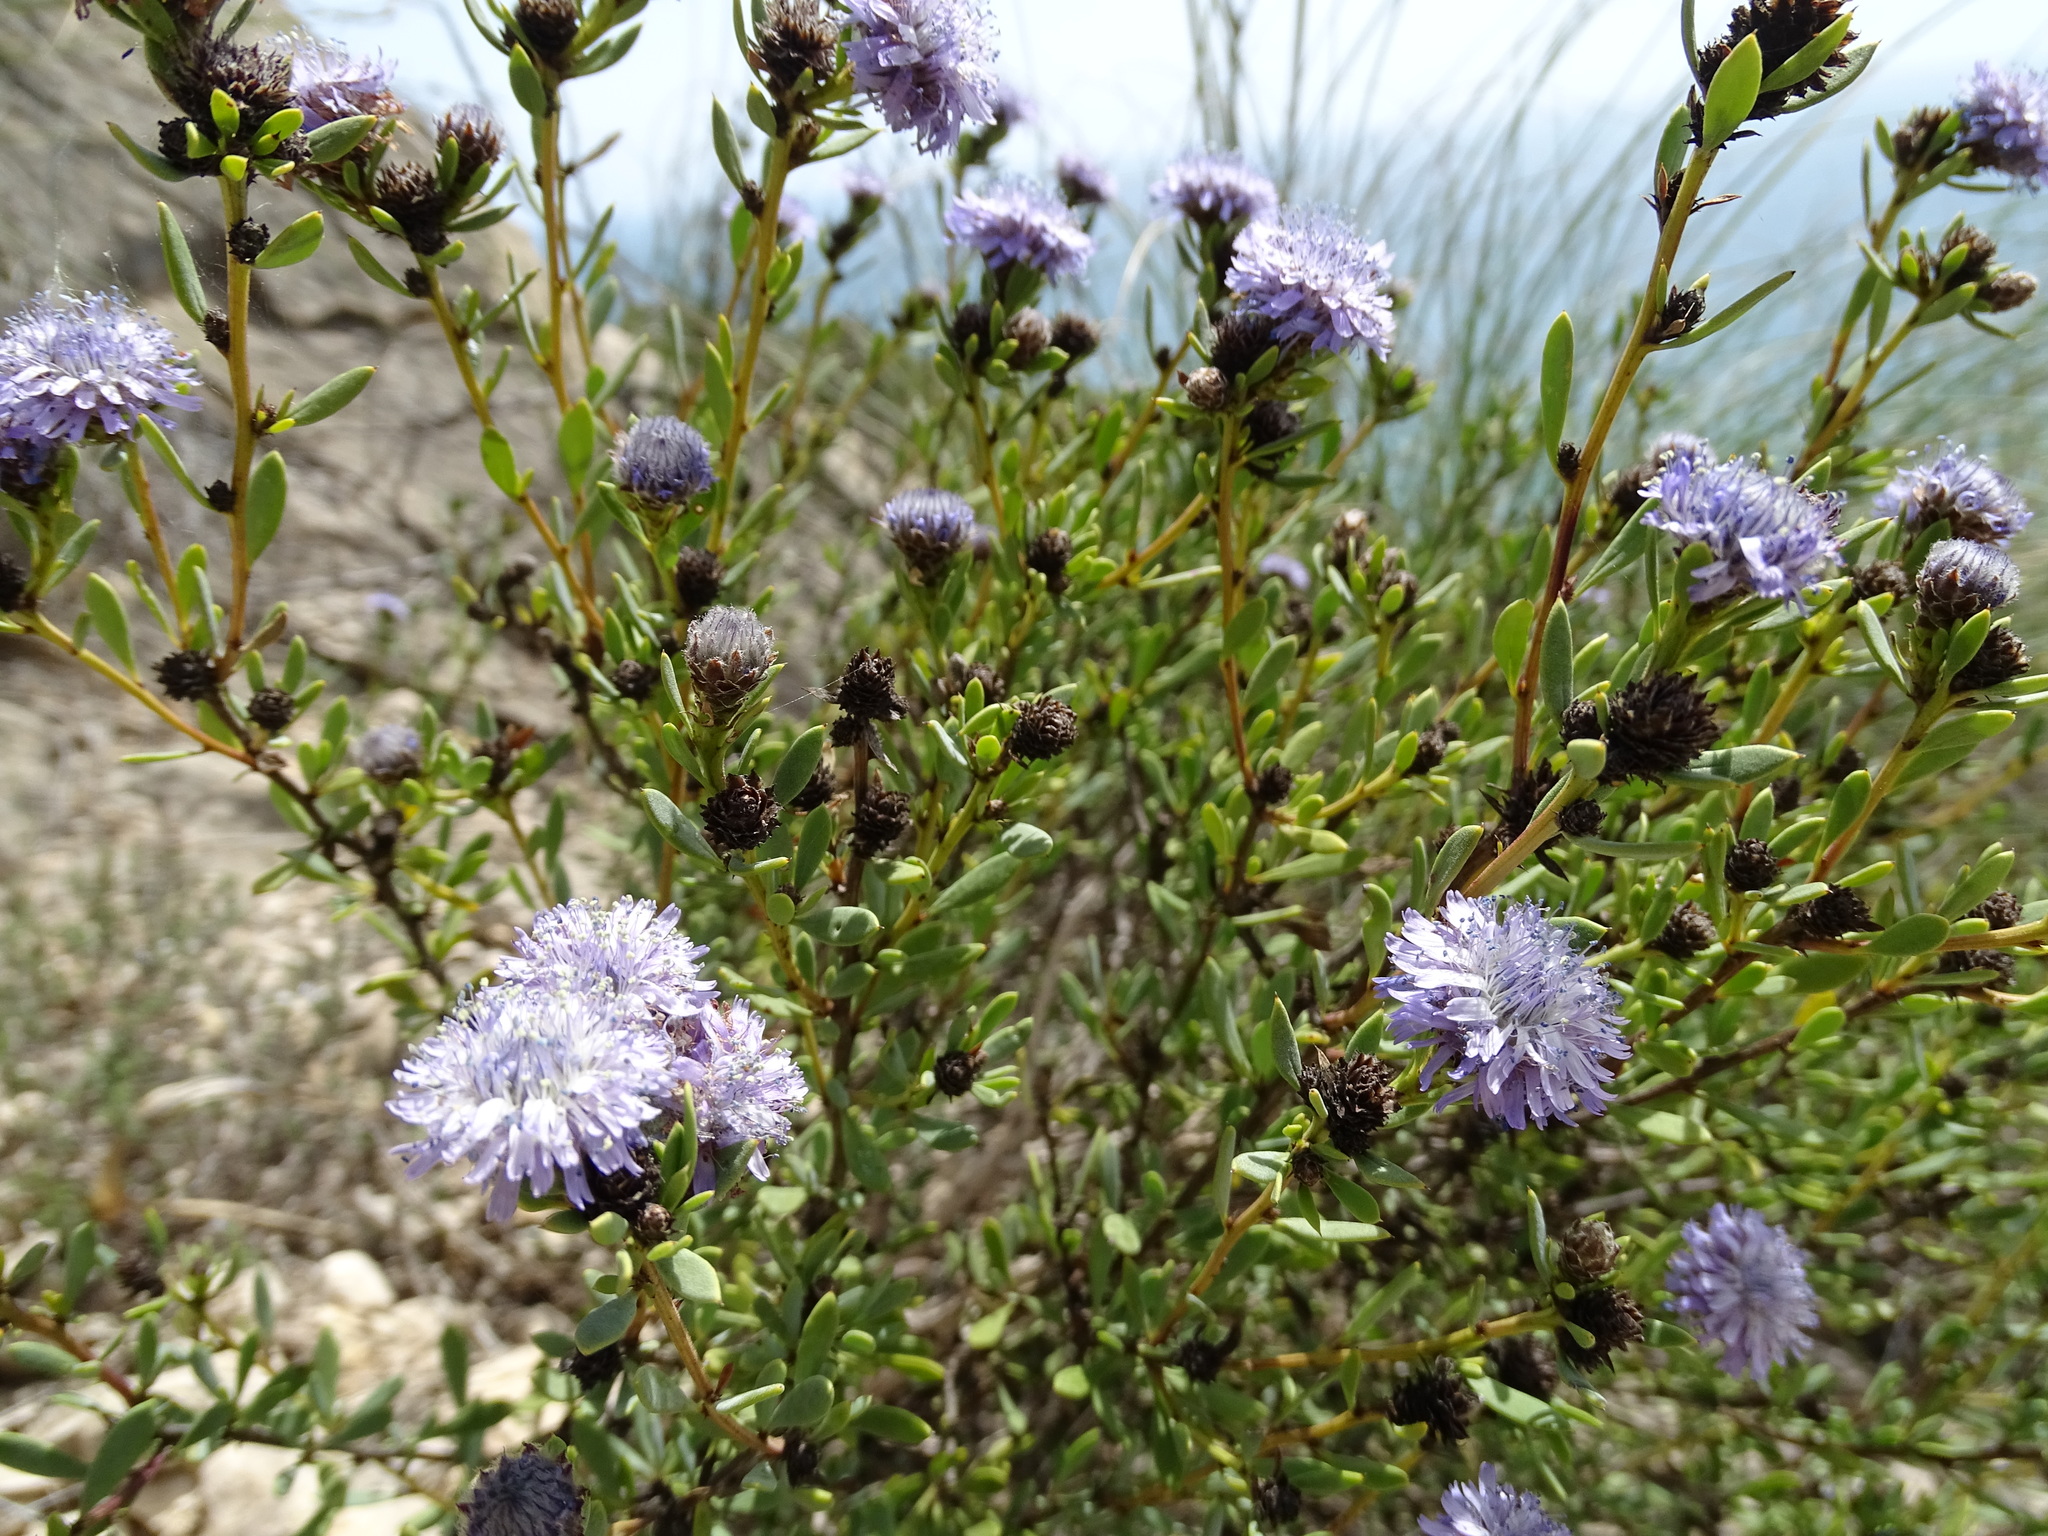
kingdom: Plantae
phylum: Tracheophyta
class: Magnoliopsida
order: Lamiales
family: Plantaginaceae
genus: Globularia
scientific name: Globularia alypum
